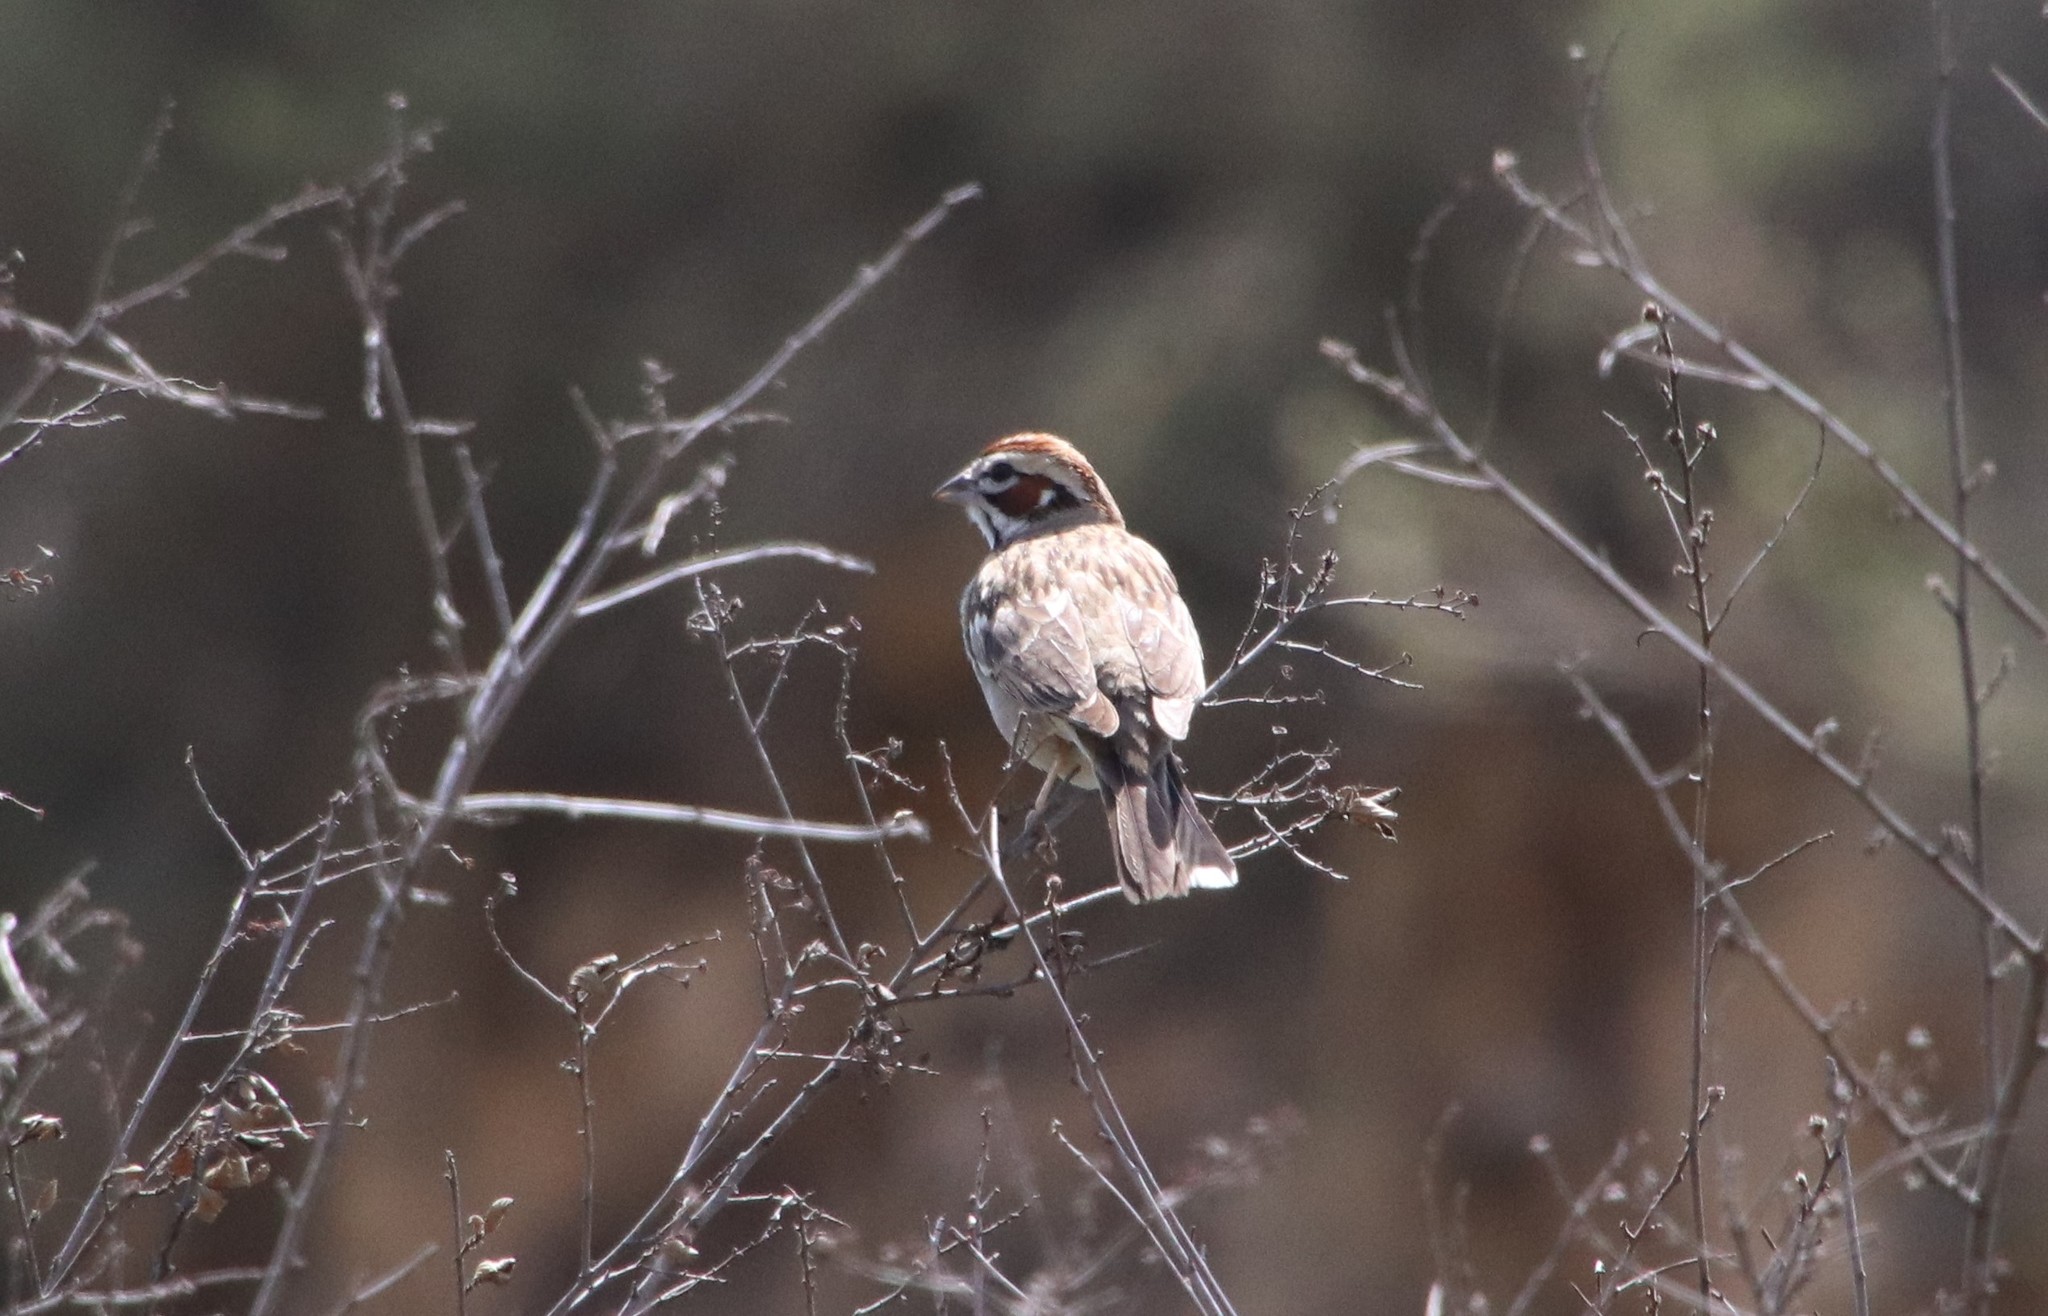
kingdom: Animalia
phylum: Chordata
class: Aves
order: Passeriformes
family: Passerellidae
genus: Chondestes
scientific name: Chondestes grammacus
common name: Lark sparrow
